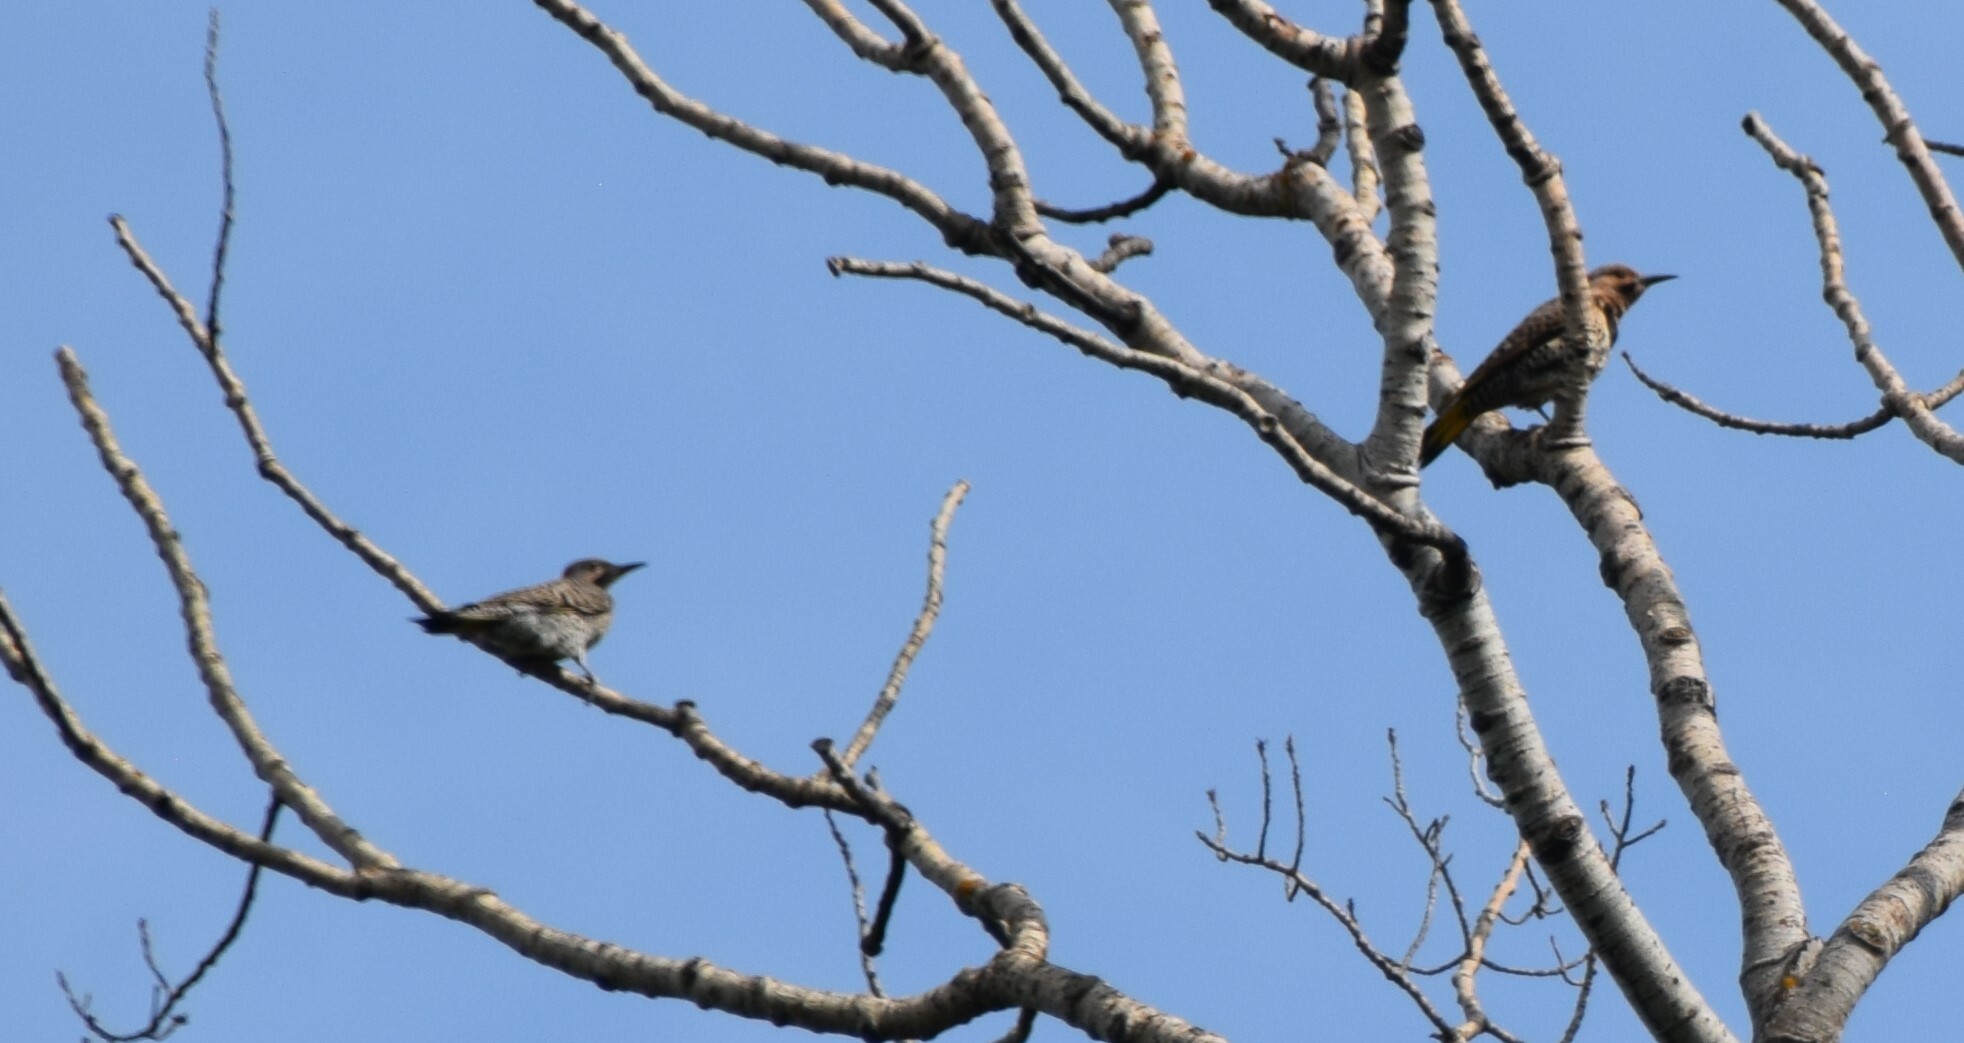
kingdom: Animalia
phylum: Chordata
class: Aves
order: Piciformes
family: Picidae
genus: Colaptes
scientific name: Colaptes auratus
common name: Northern flicker
